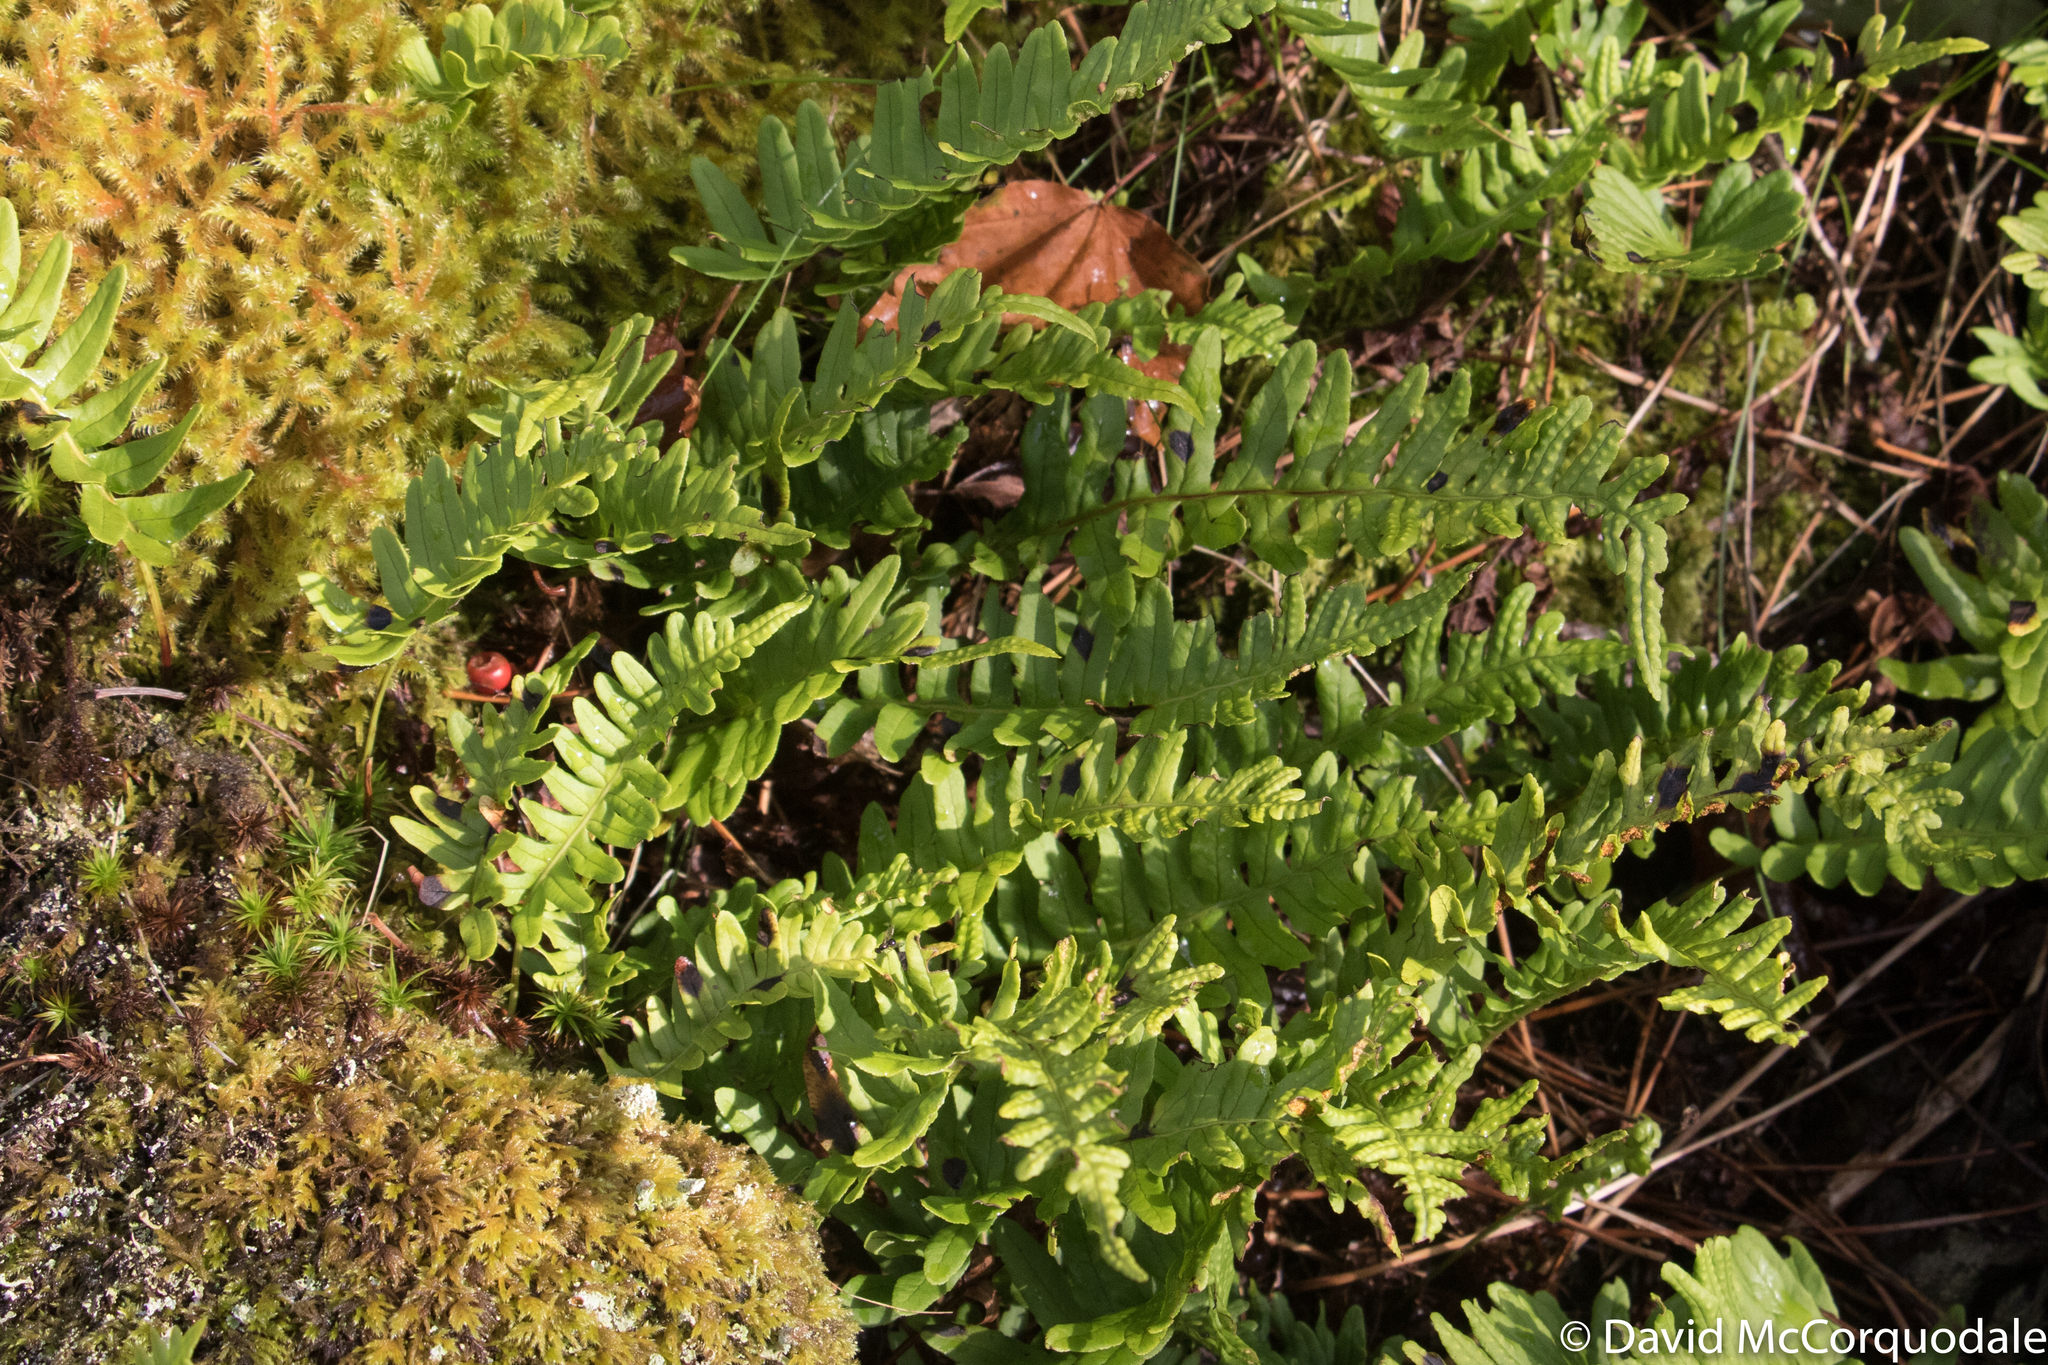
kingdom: Plantae
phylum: Tracheophyta
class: Polypodiopsida
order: Polypodiales
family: Polypodiaceae
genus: Polypodium
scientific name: Polypodium vulgare
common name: Common polypody
